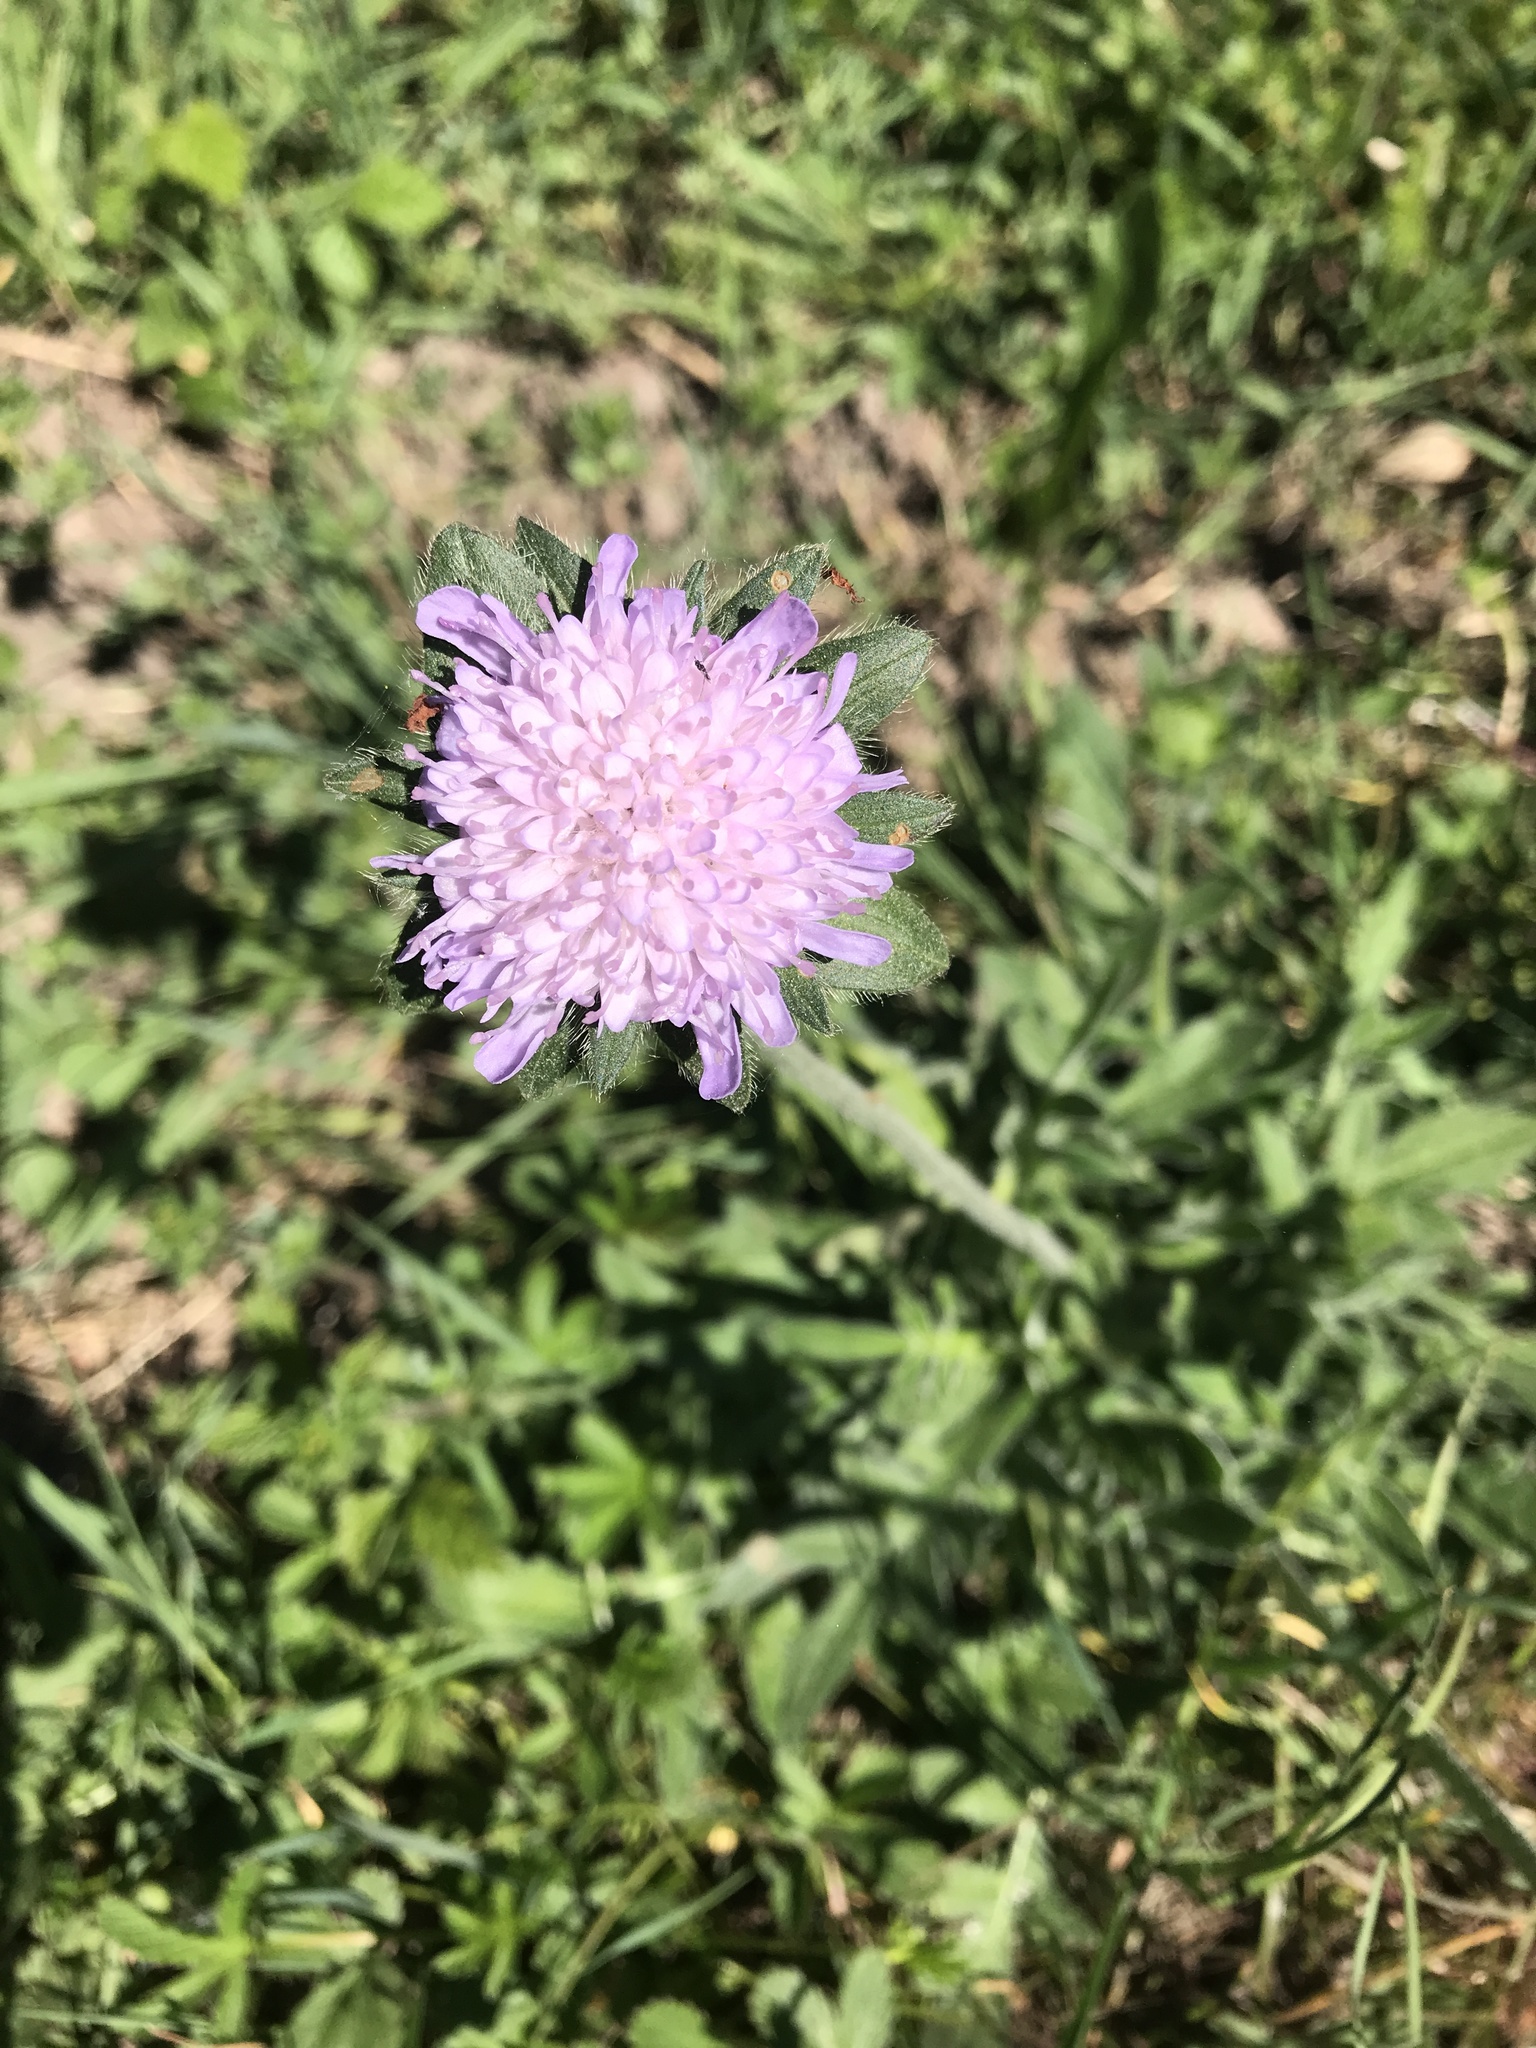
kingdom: Plantae
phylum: Tracheophyta
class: Magnoliopsida
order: Dipsacales
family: Caprifoliaceae
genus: Knautia
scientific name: Knautia arvensis
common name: Field scabiosa
